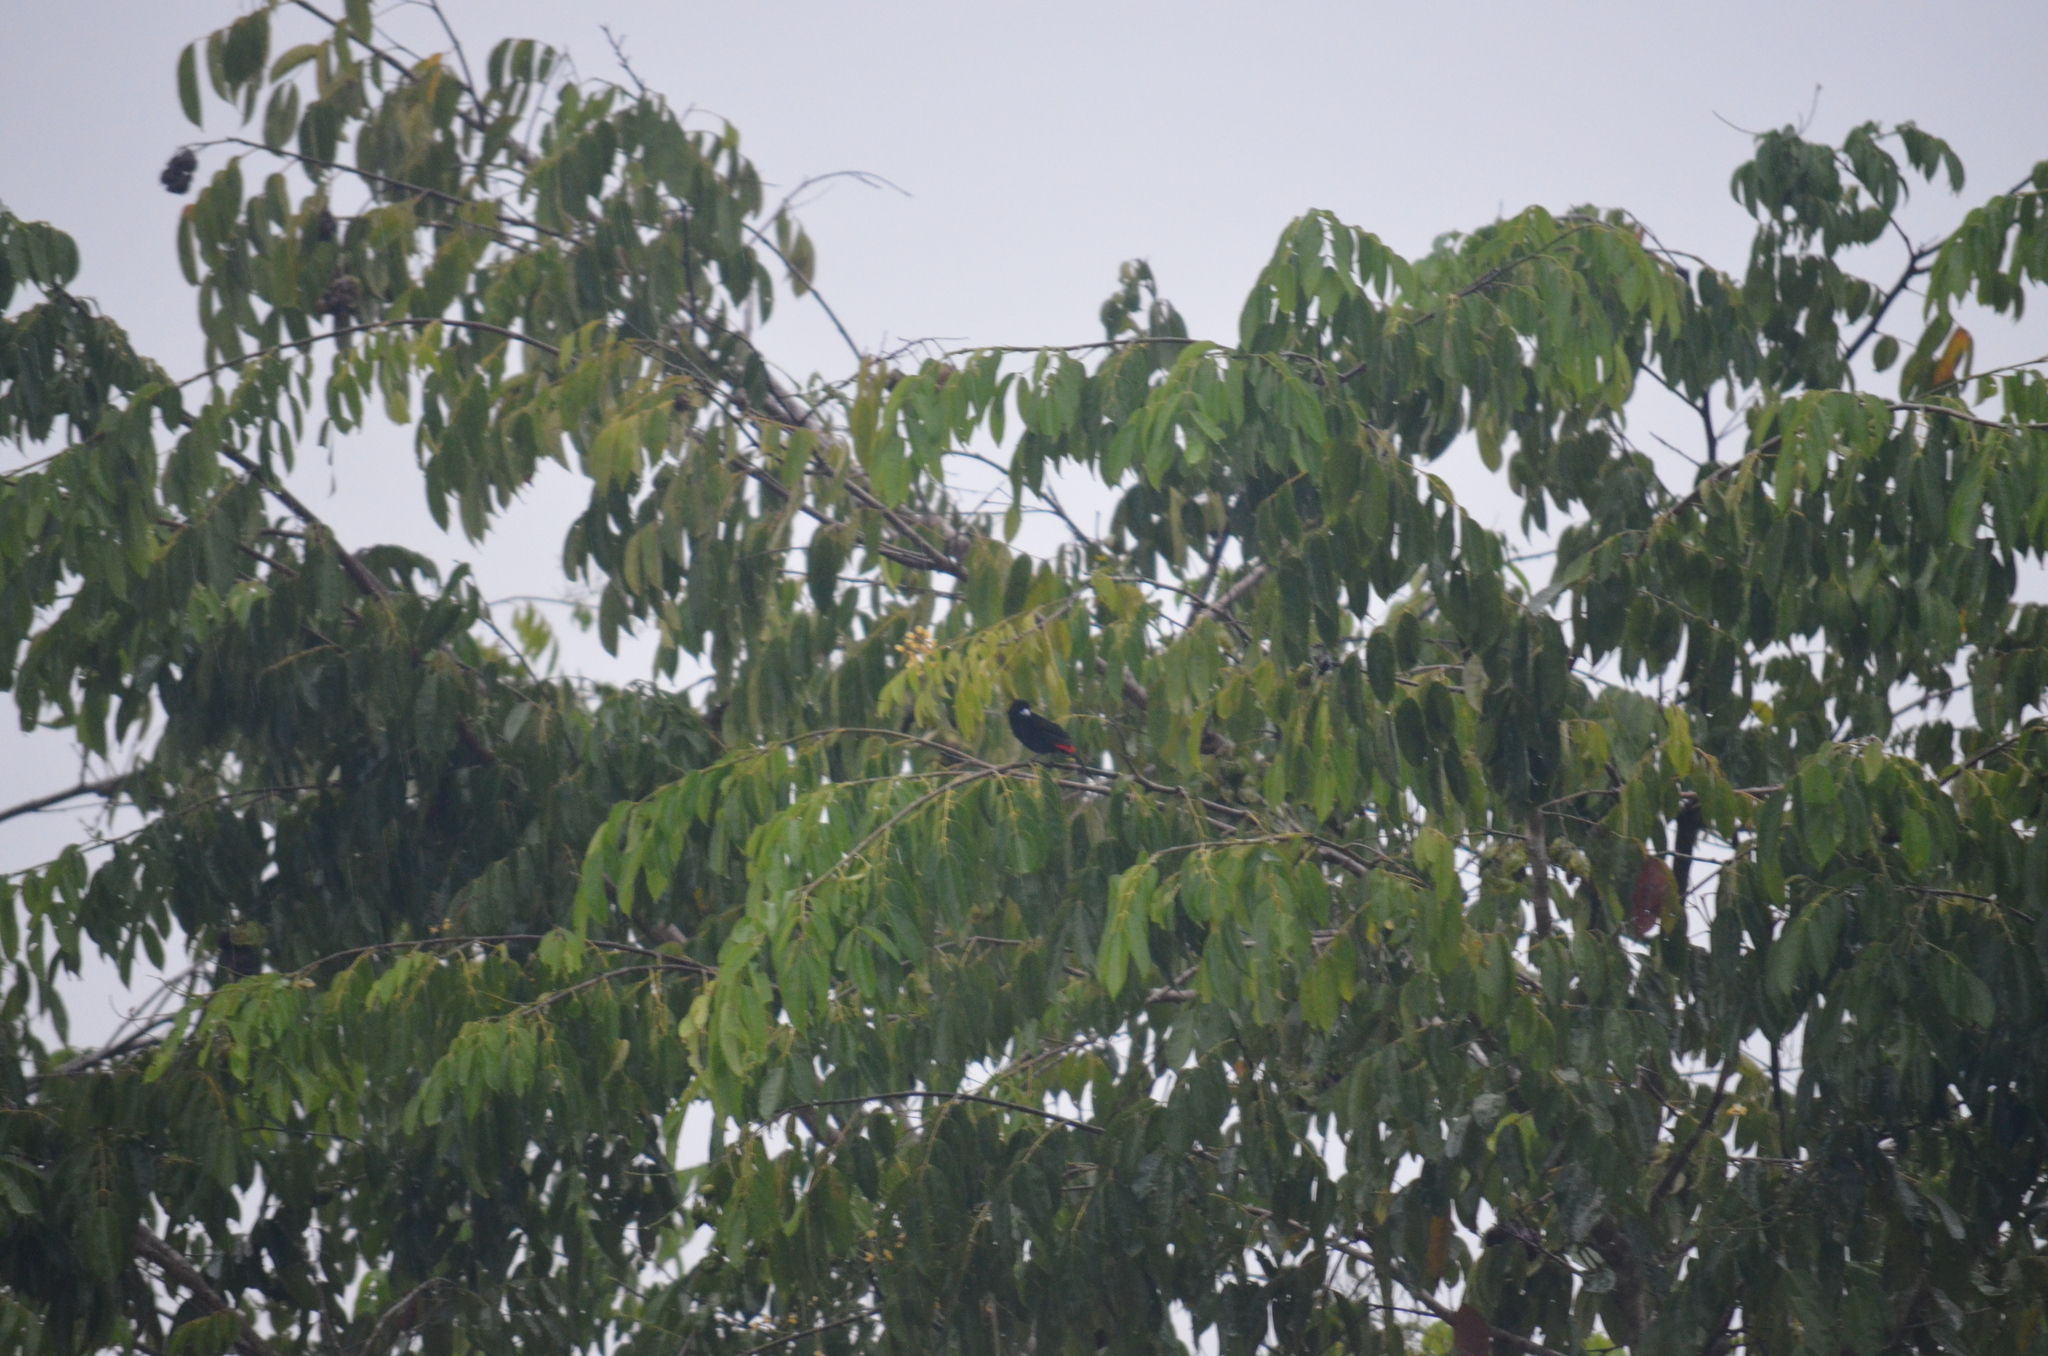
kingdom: Animalia
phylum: Chordata
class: Aves
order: Passeriformes
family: Thraupidae
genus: Ramphocelus
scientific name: Ramphocelus passerinii
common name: Passerini's tanager
